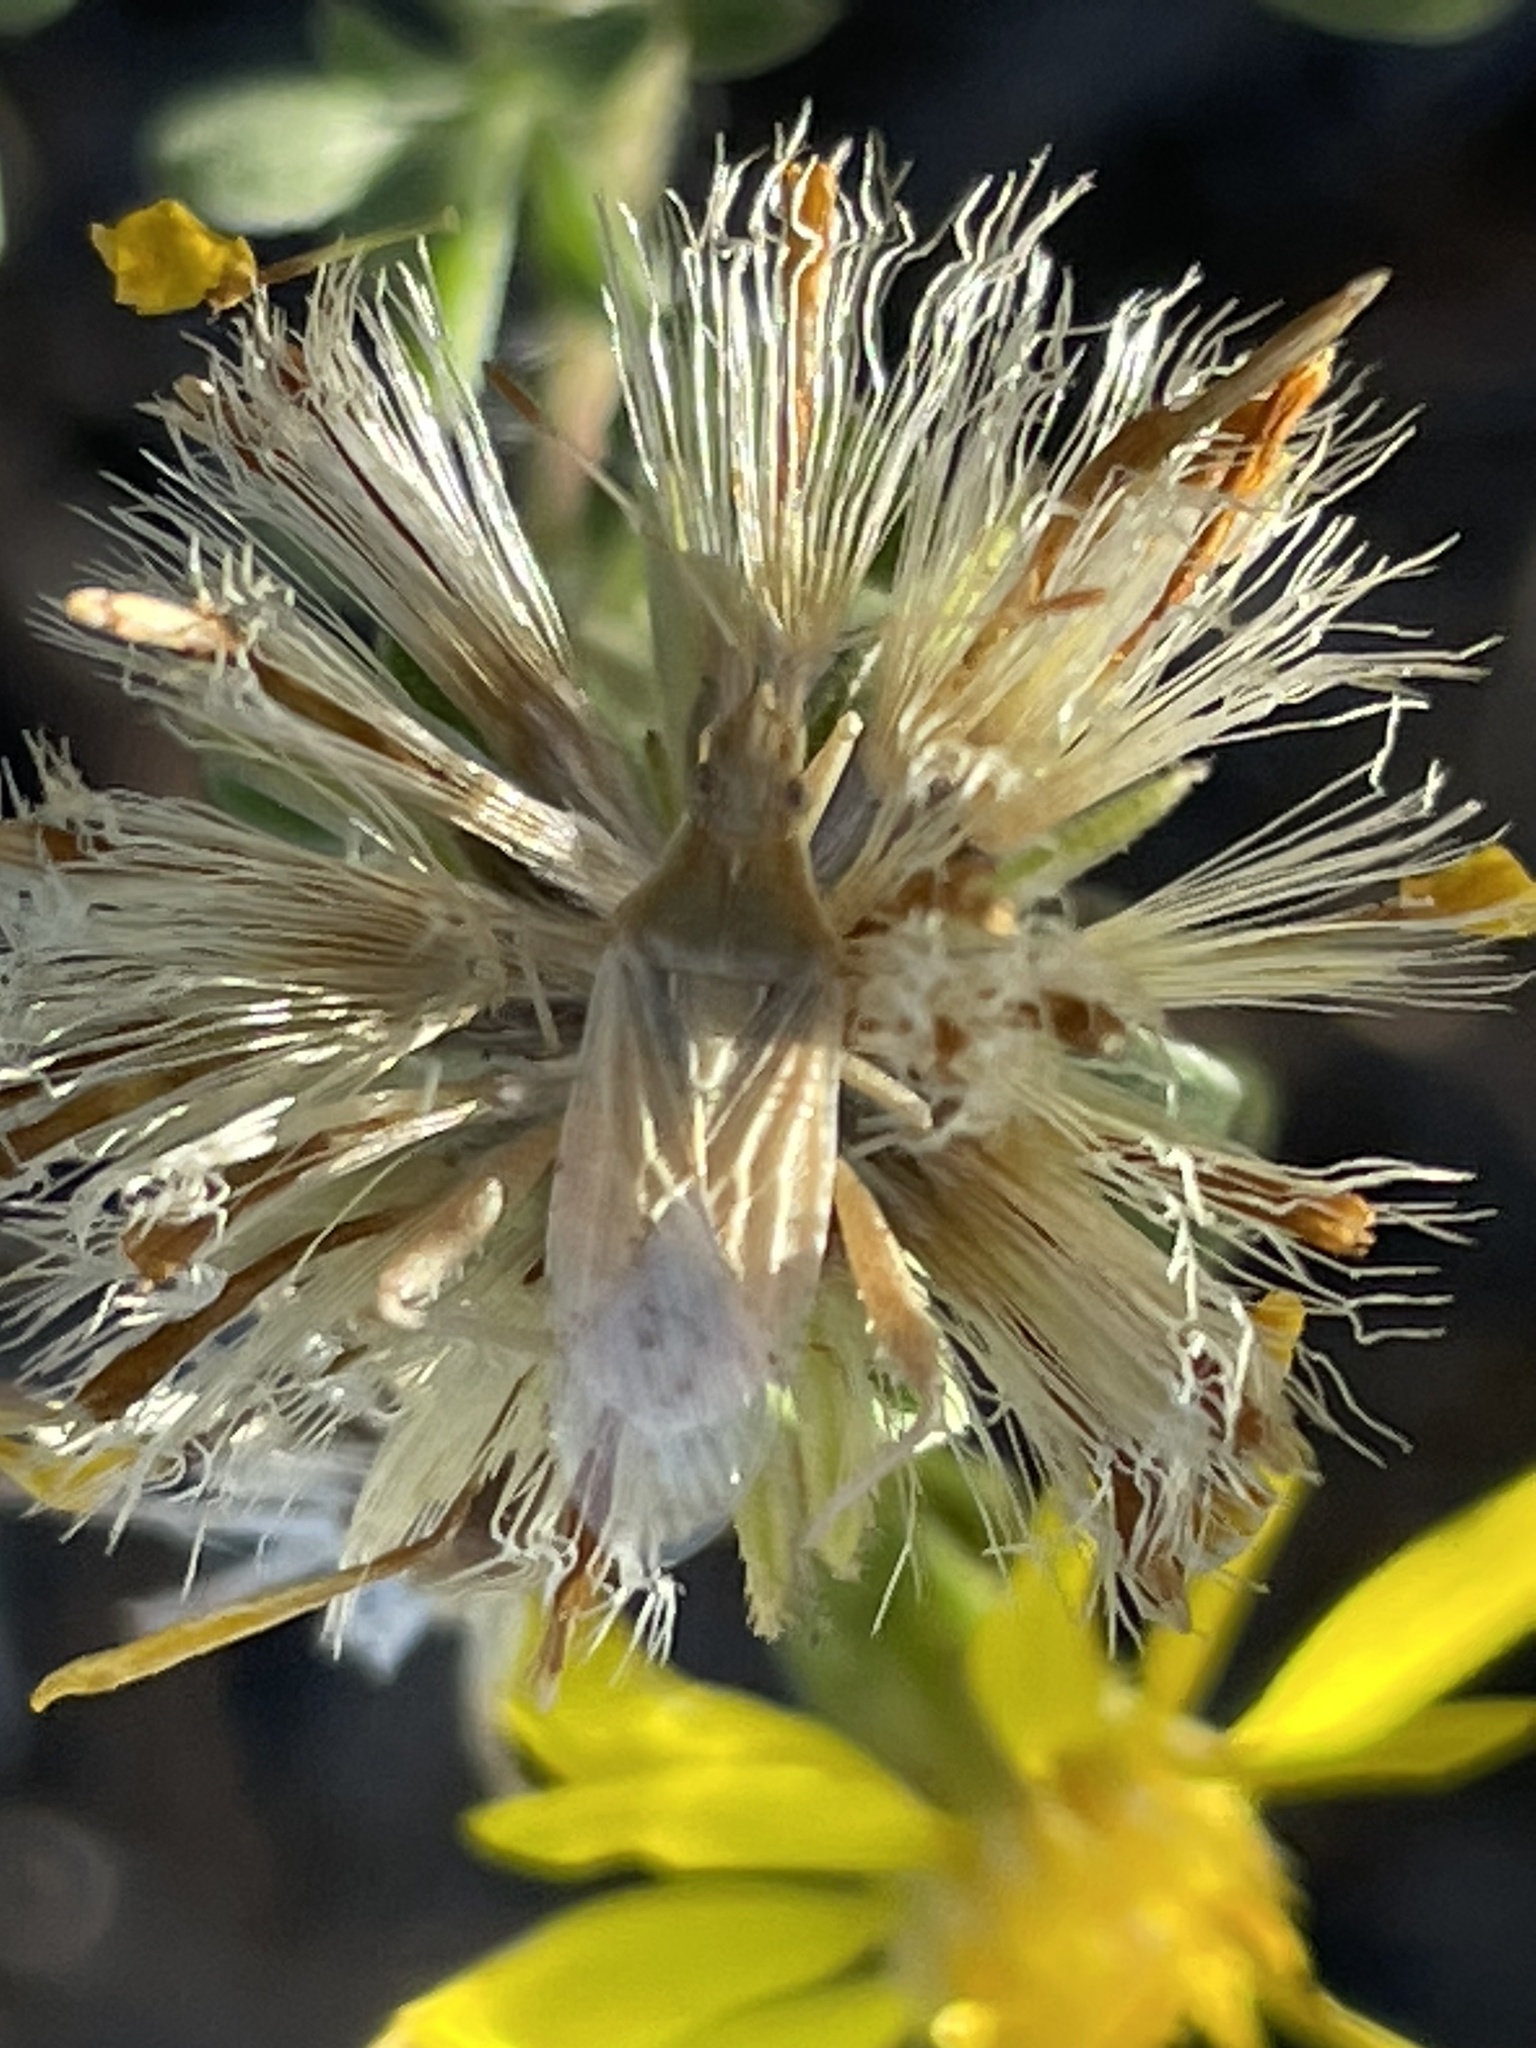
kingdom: Animalia
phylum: Arthropoda
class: Insecta
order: Hemiptera
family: Rhopalidae
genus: Harmostes
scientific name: Harmostes
